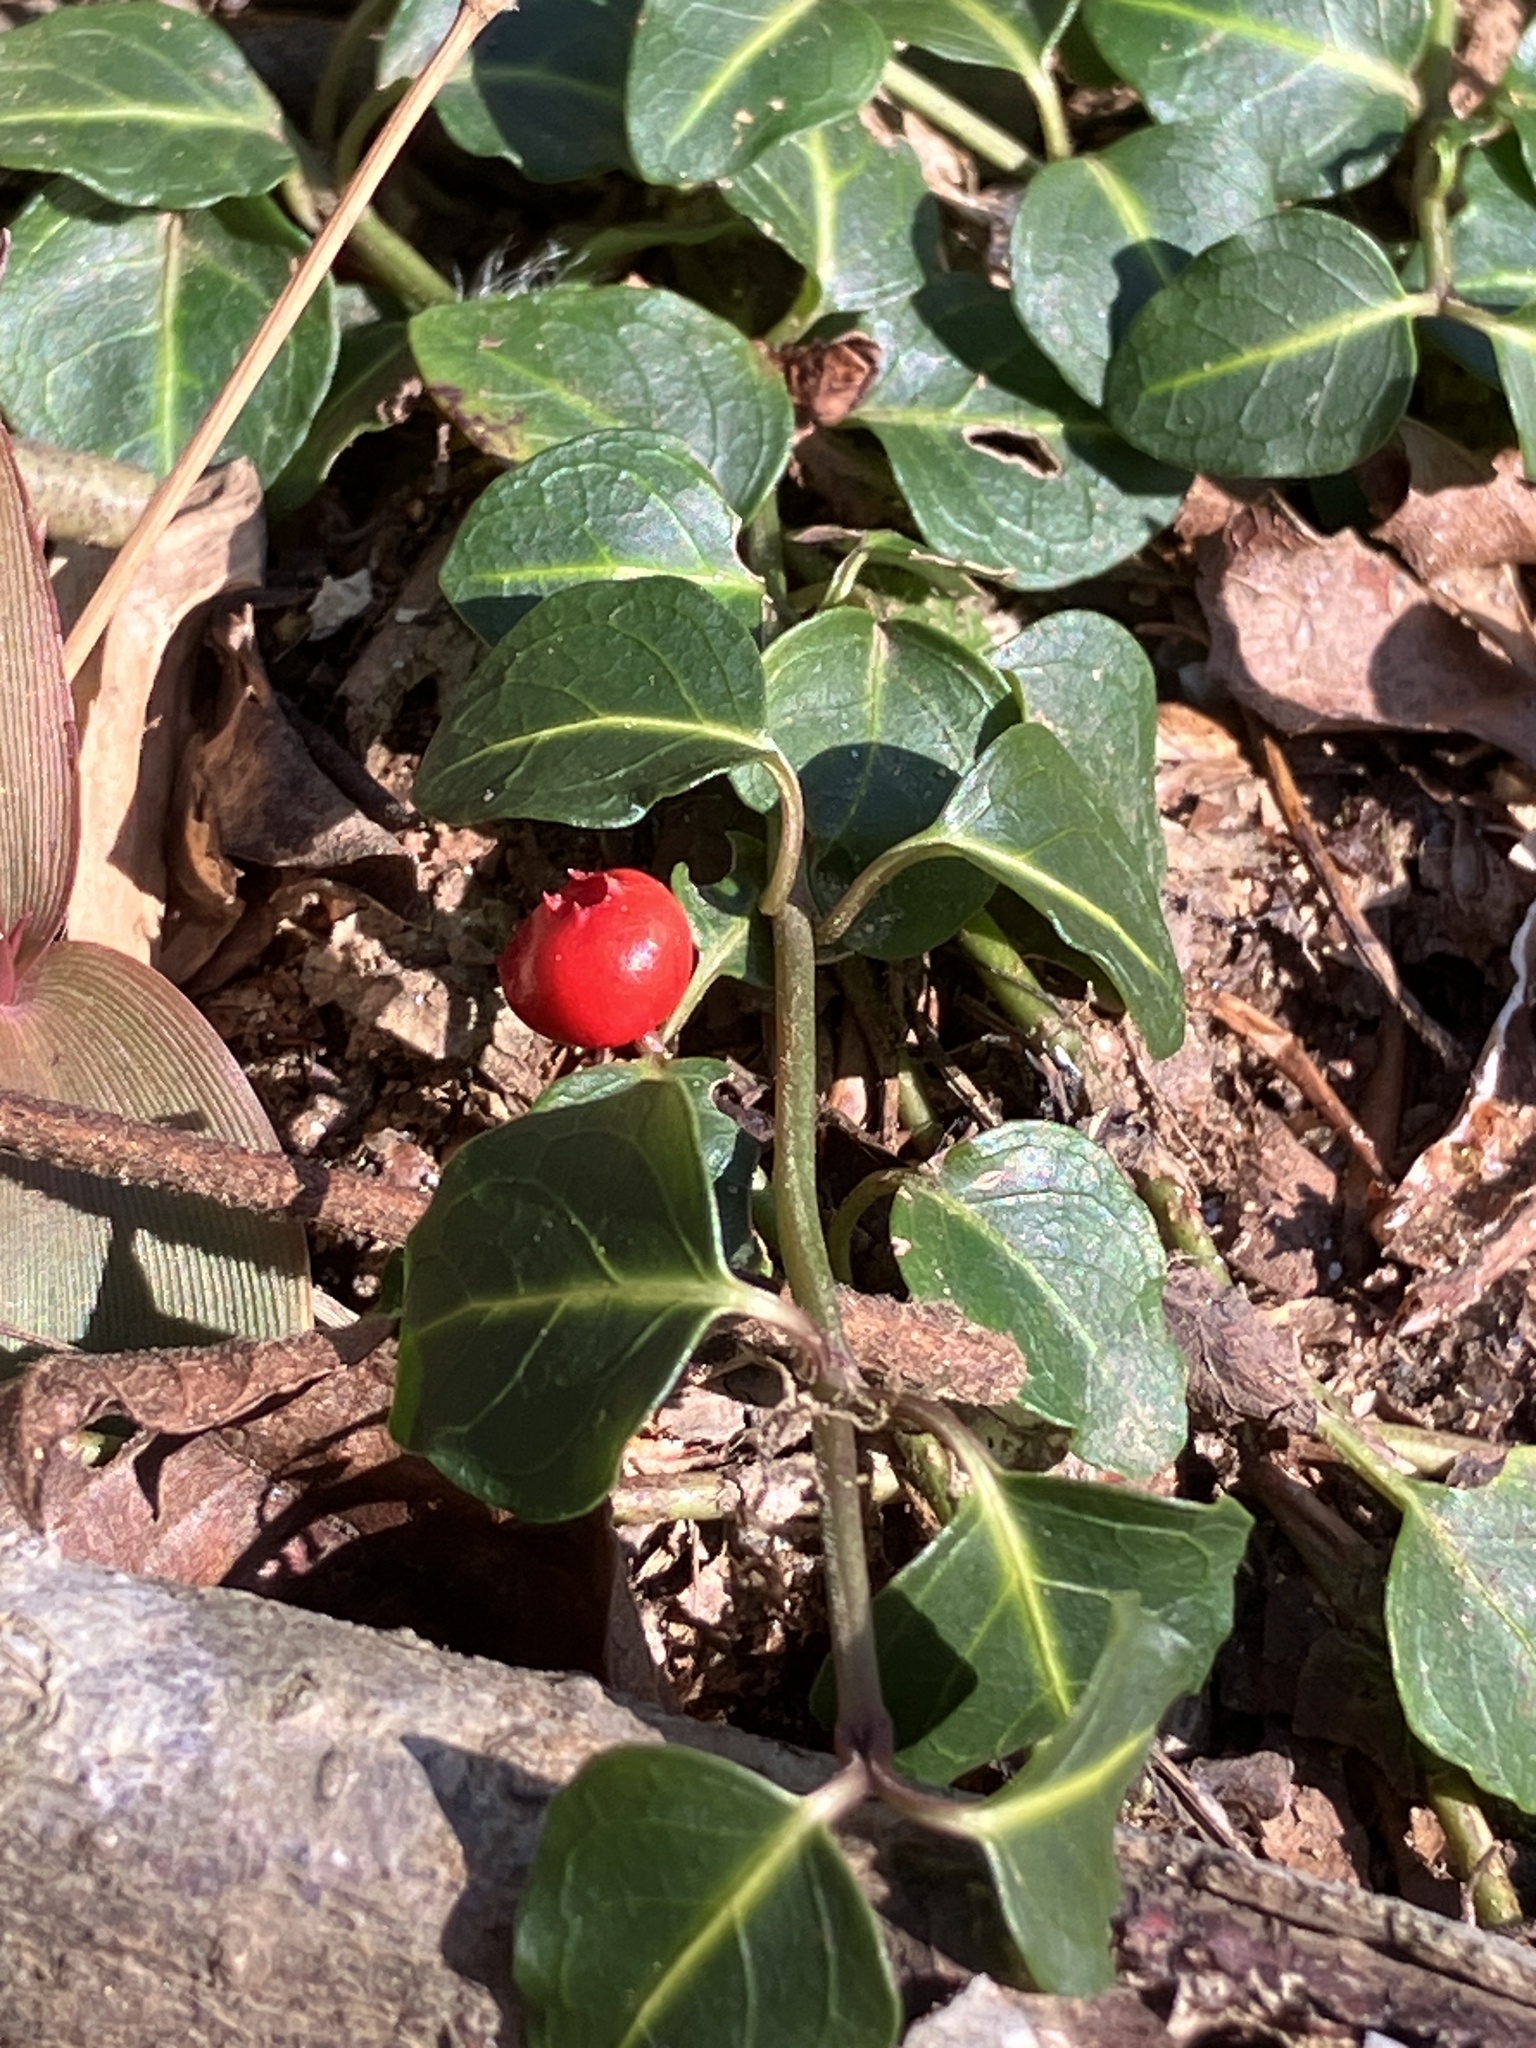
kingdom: Plantae
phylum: Tracheophyta
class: Magnoliopsida
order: Gentianales
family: Rubiaceae
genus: Mitchella
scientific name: Mitchella repens
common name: Partridge-berry
